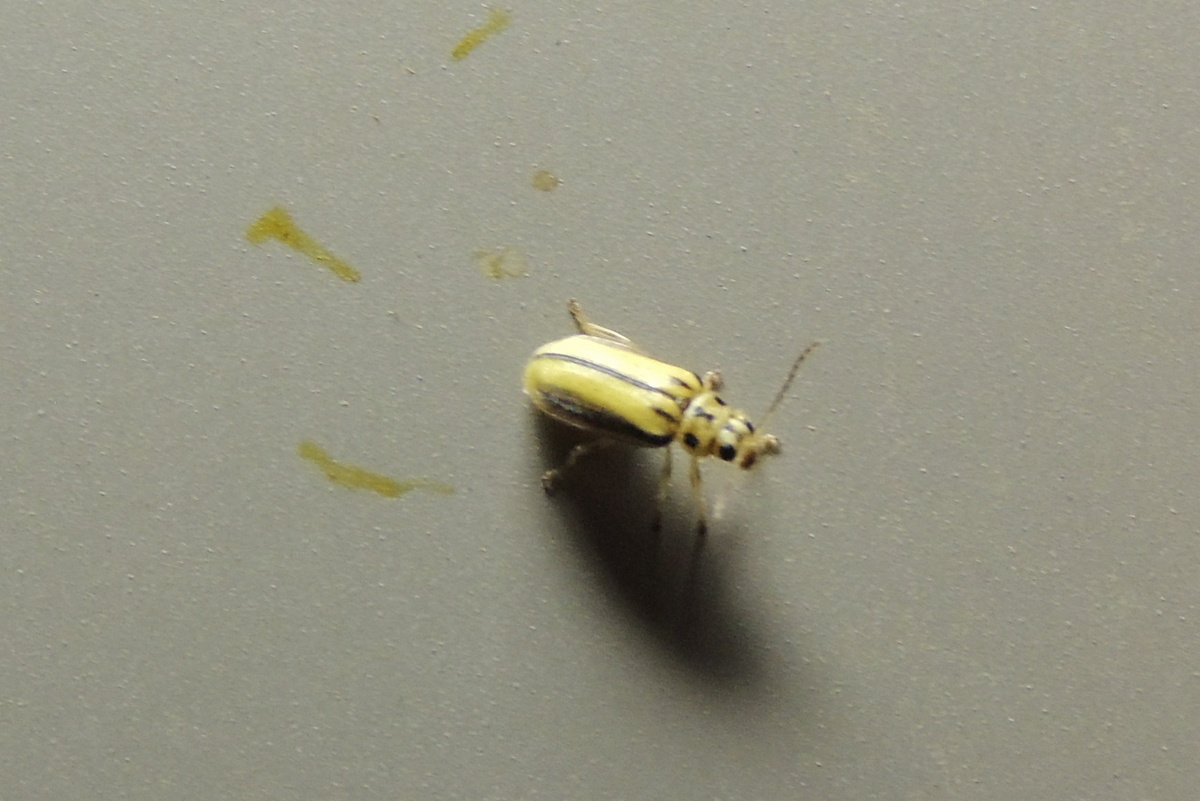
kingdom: Animalia
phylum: Arthropoda
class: Insecta
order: Coleoptera
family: Chrysomelidae
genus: Xanthogaleruca
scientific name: Xanthogaleruca luteola
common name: Elm leaf beetle
